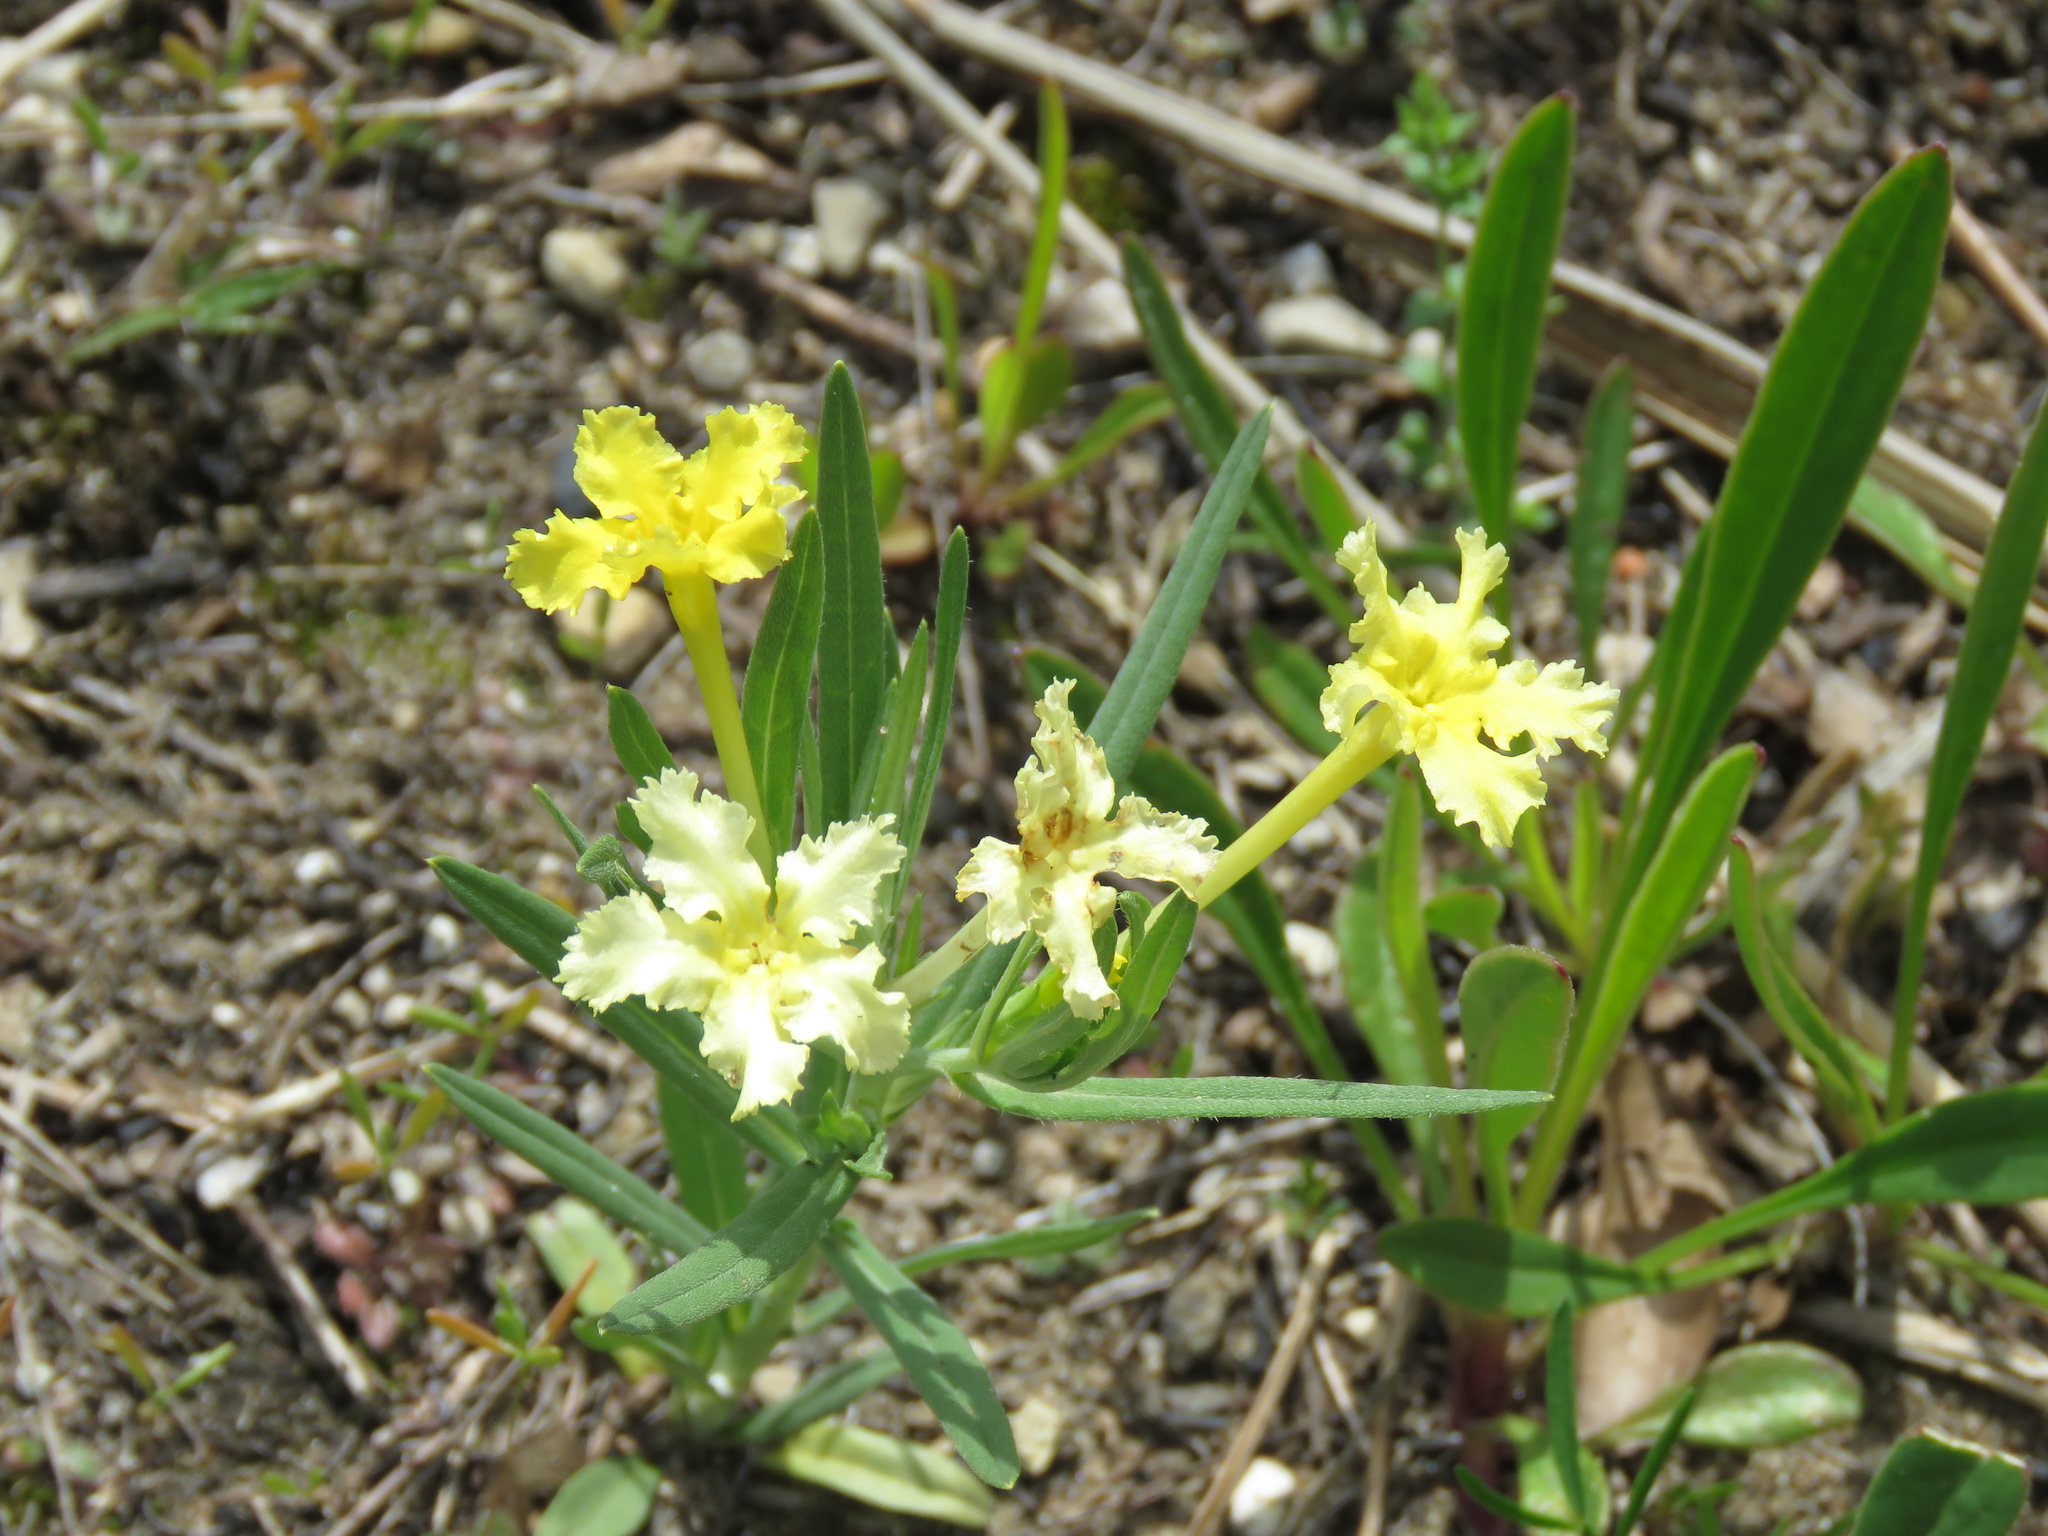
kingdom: Plantae
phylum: Tracheophyta
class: Magnoliopsida
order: Boraginales
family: Boraginaceae
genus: Lithospermum
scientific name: Lithospermum incisum
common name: Fringed gromwell
